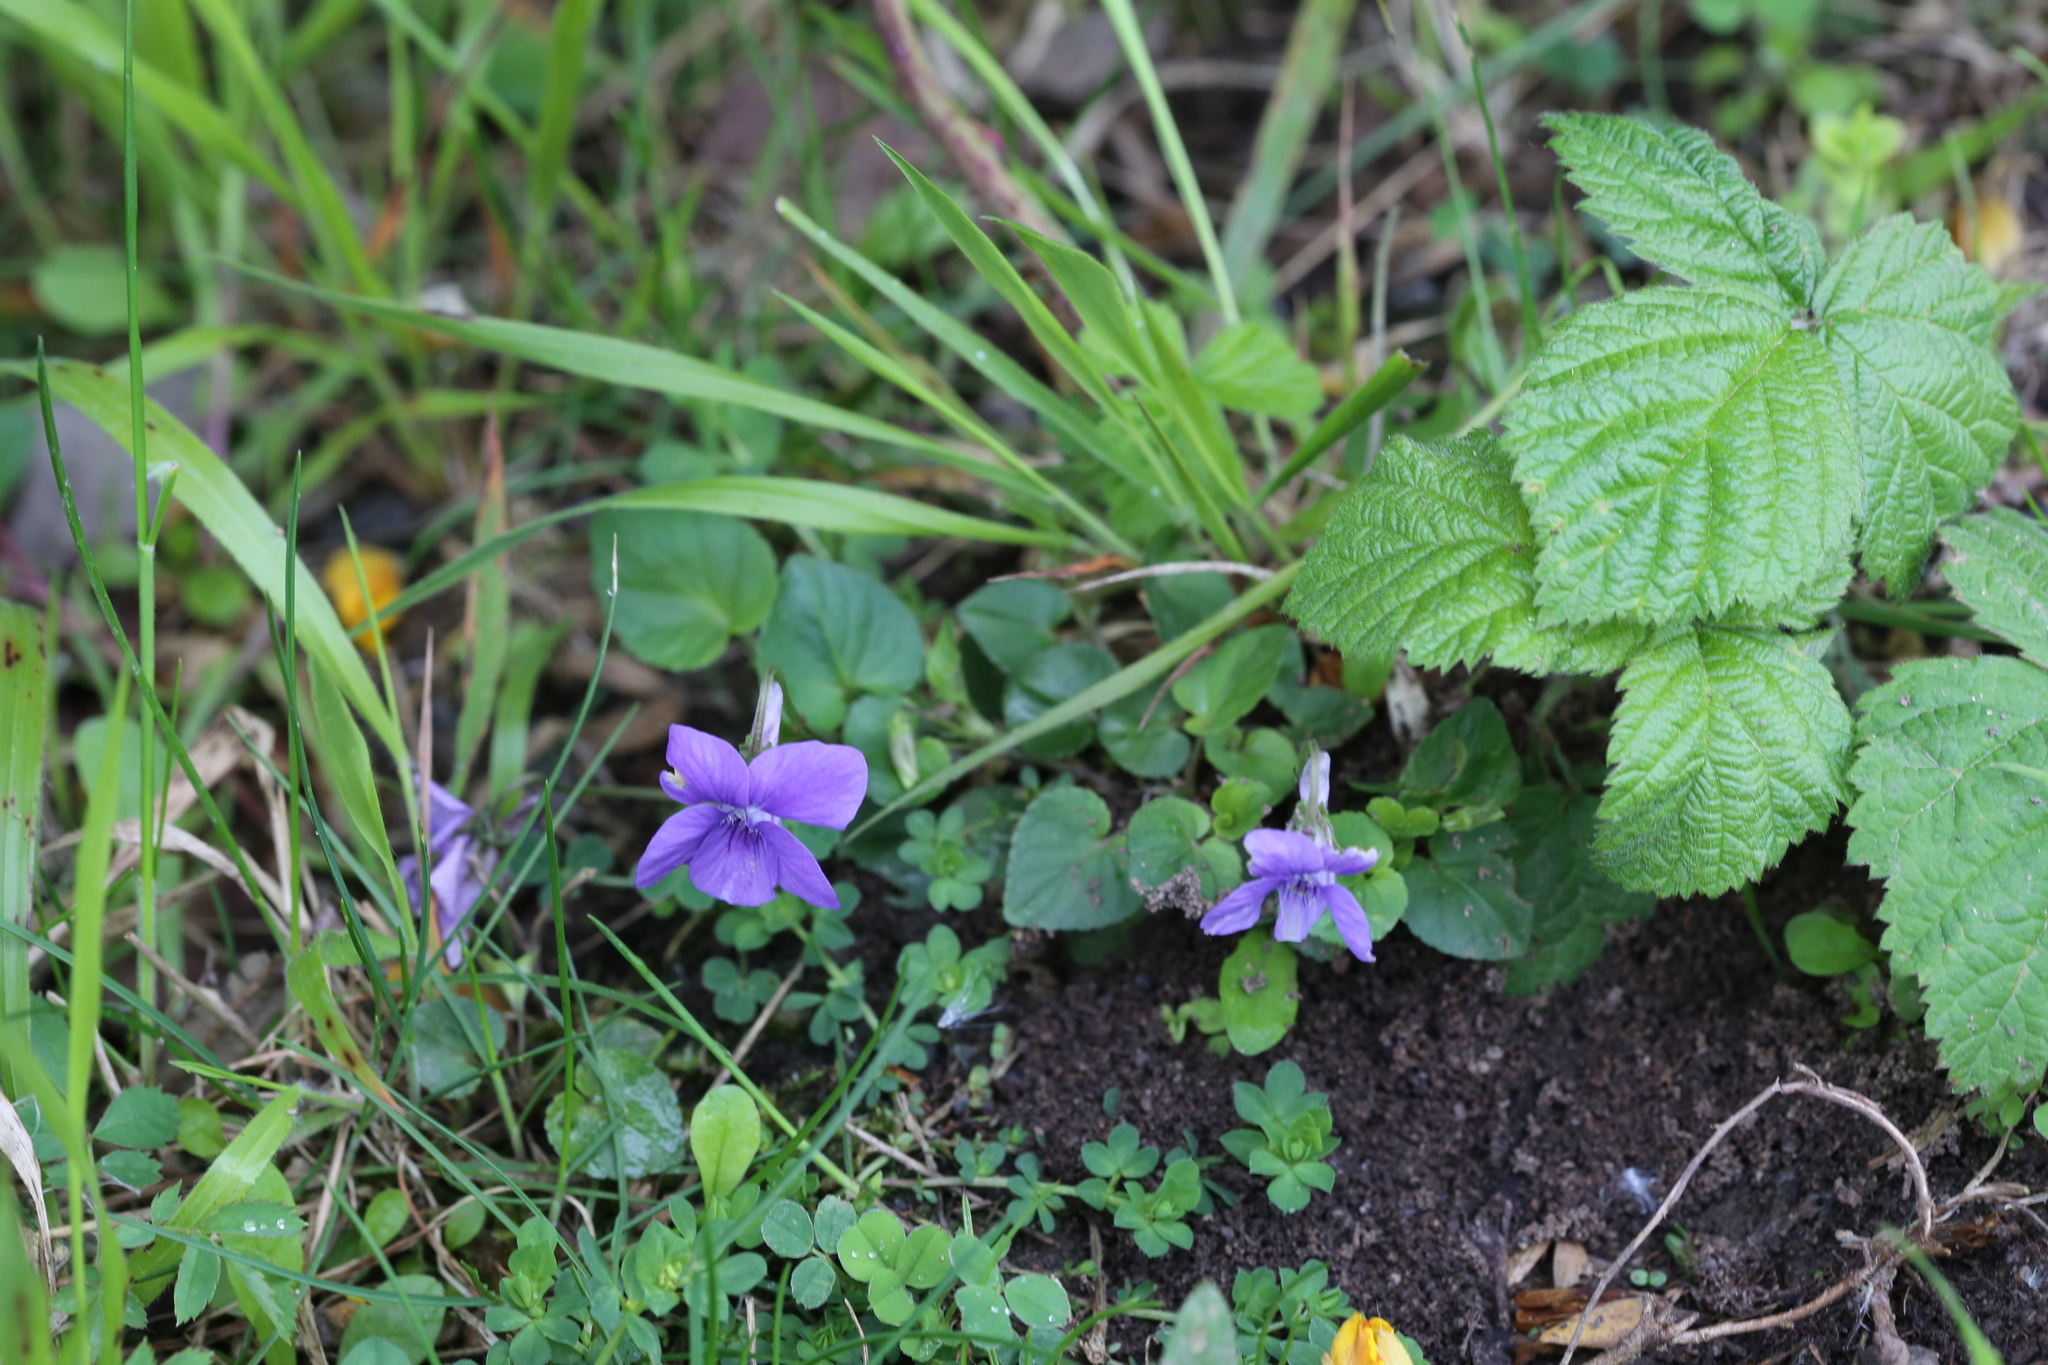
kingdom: Plantae
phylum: Tracheophyta
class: Magnoliopsida
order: Malpighiales
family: Violaceae
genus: Viola
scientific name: Viola riviniana
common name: Common dog-violet
